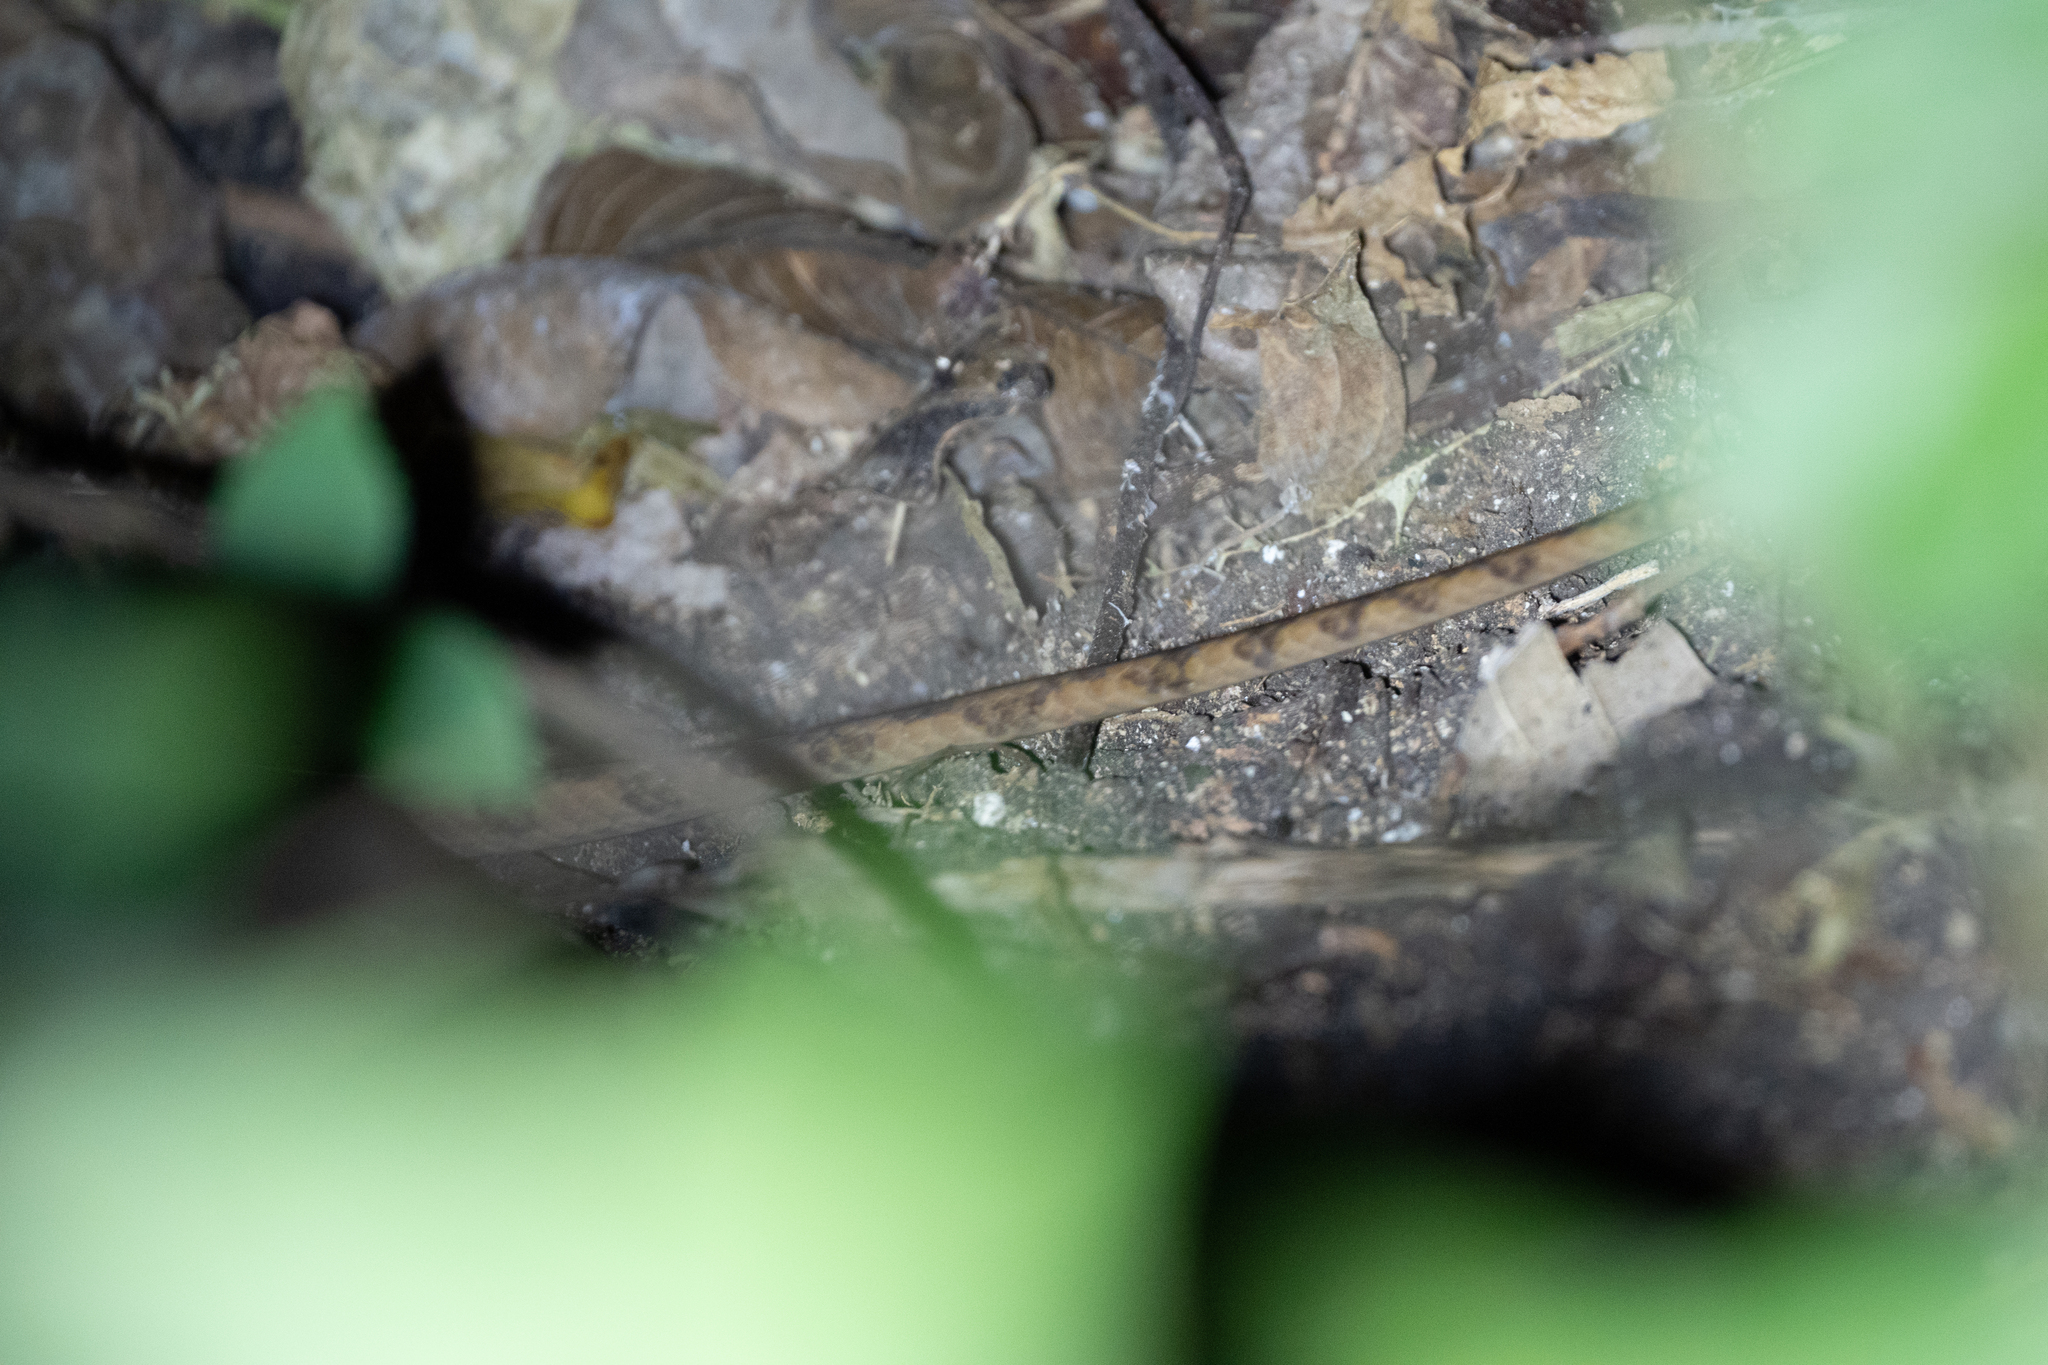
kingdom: Animalia
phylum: Chordata
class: Squamata
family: Colubridae
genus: Leptodeira
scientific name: Leptodeira ornata
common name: Northern cat-eyed snake
